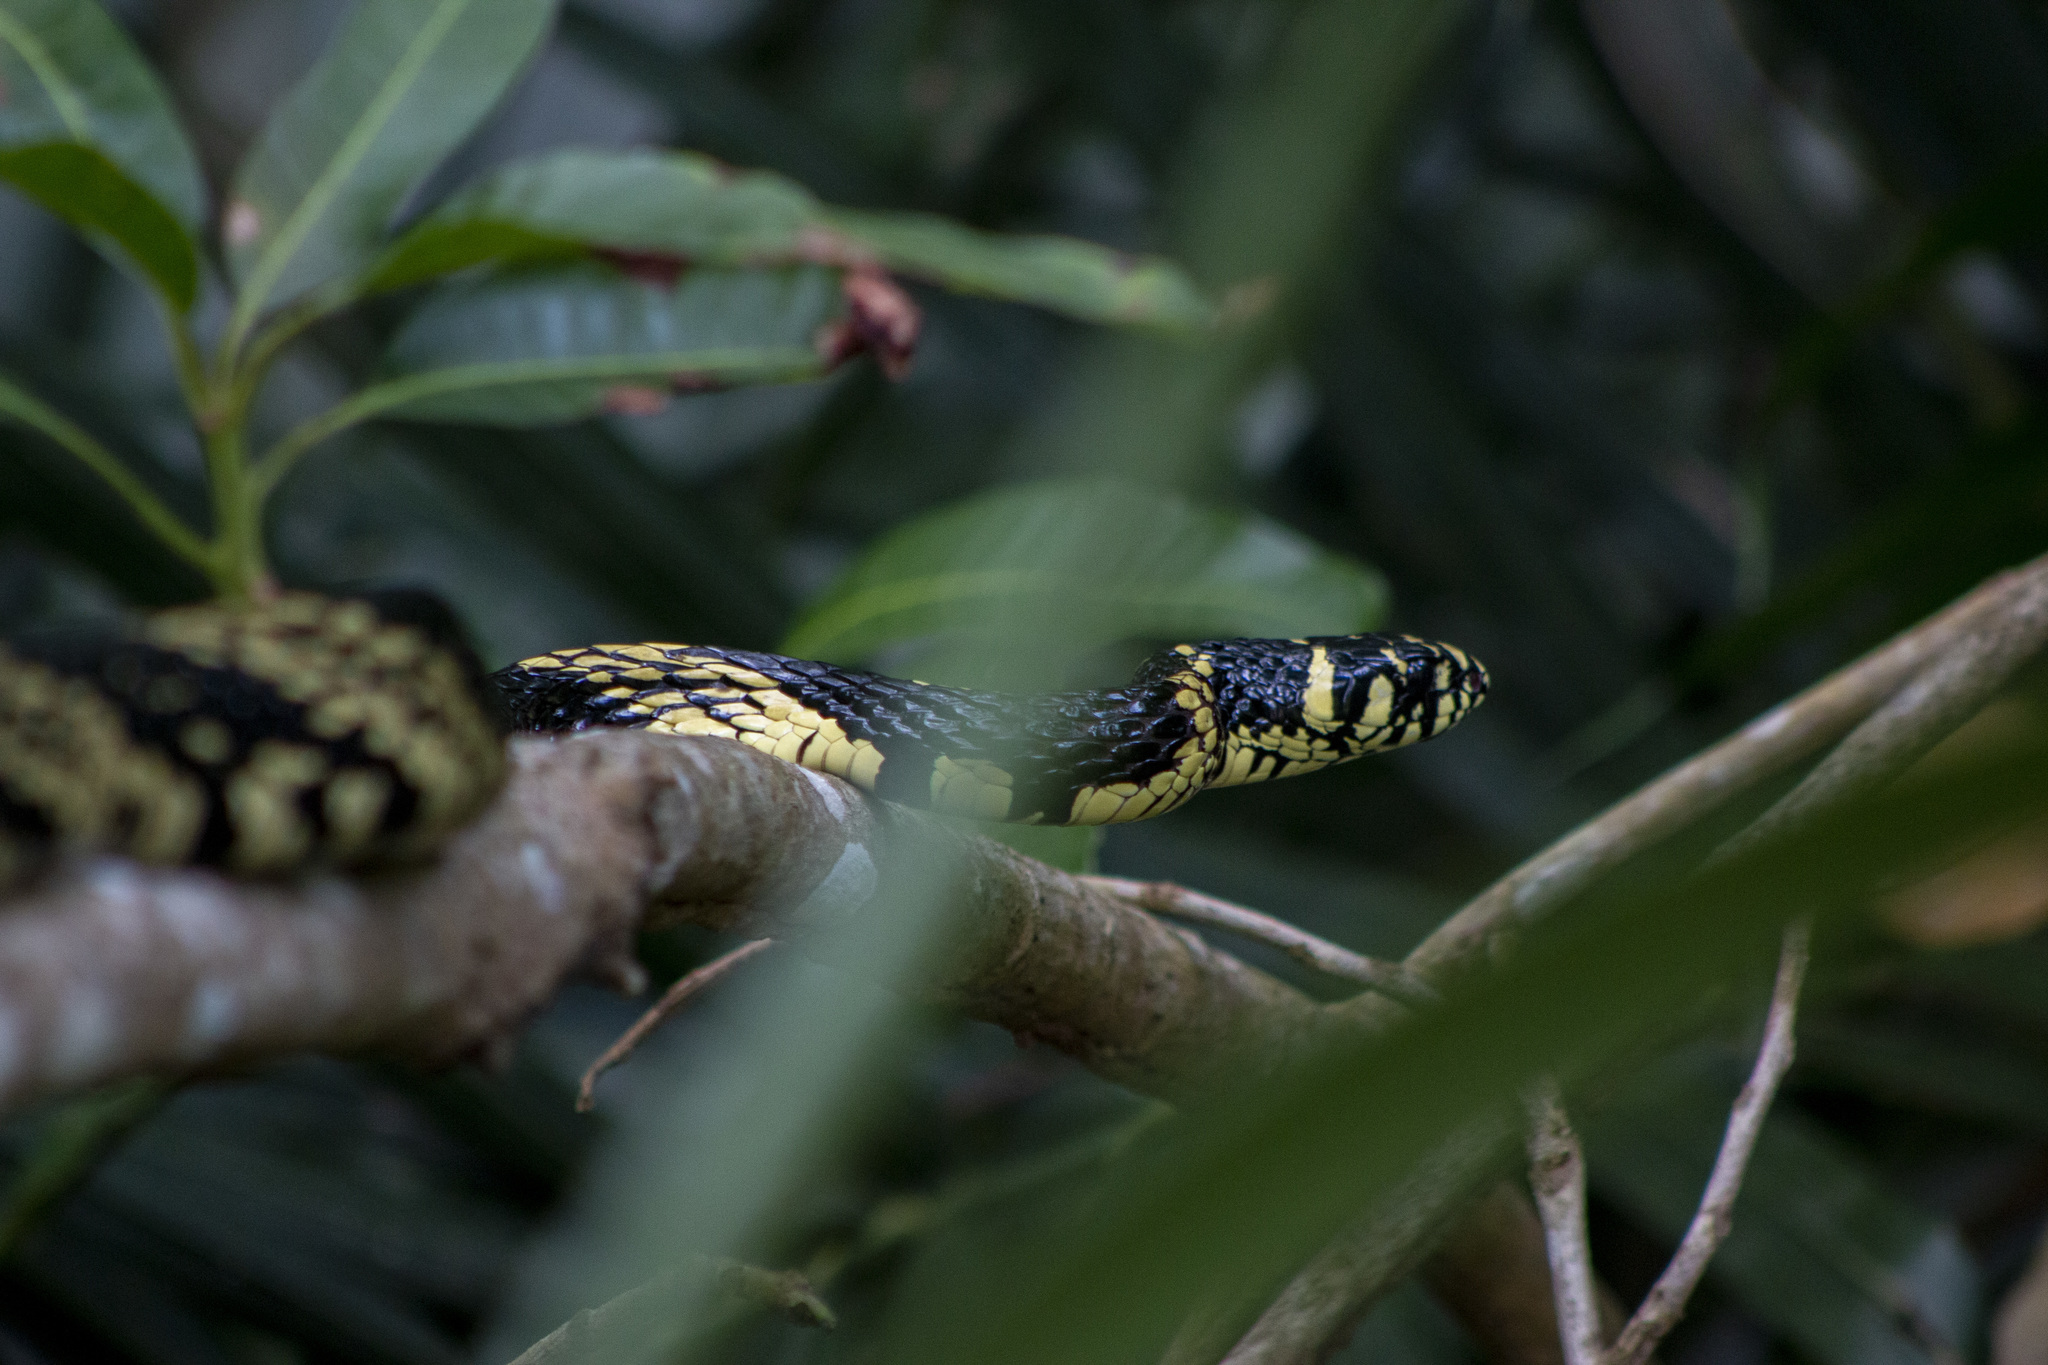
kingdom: Animalia
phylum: Chordata
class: Squamata
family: Colubridae
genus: Spilotes
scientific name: Spilotes pullatus
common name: Chicken snake
